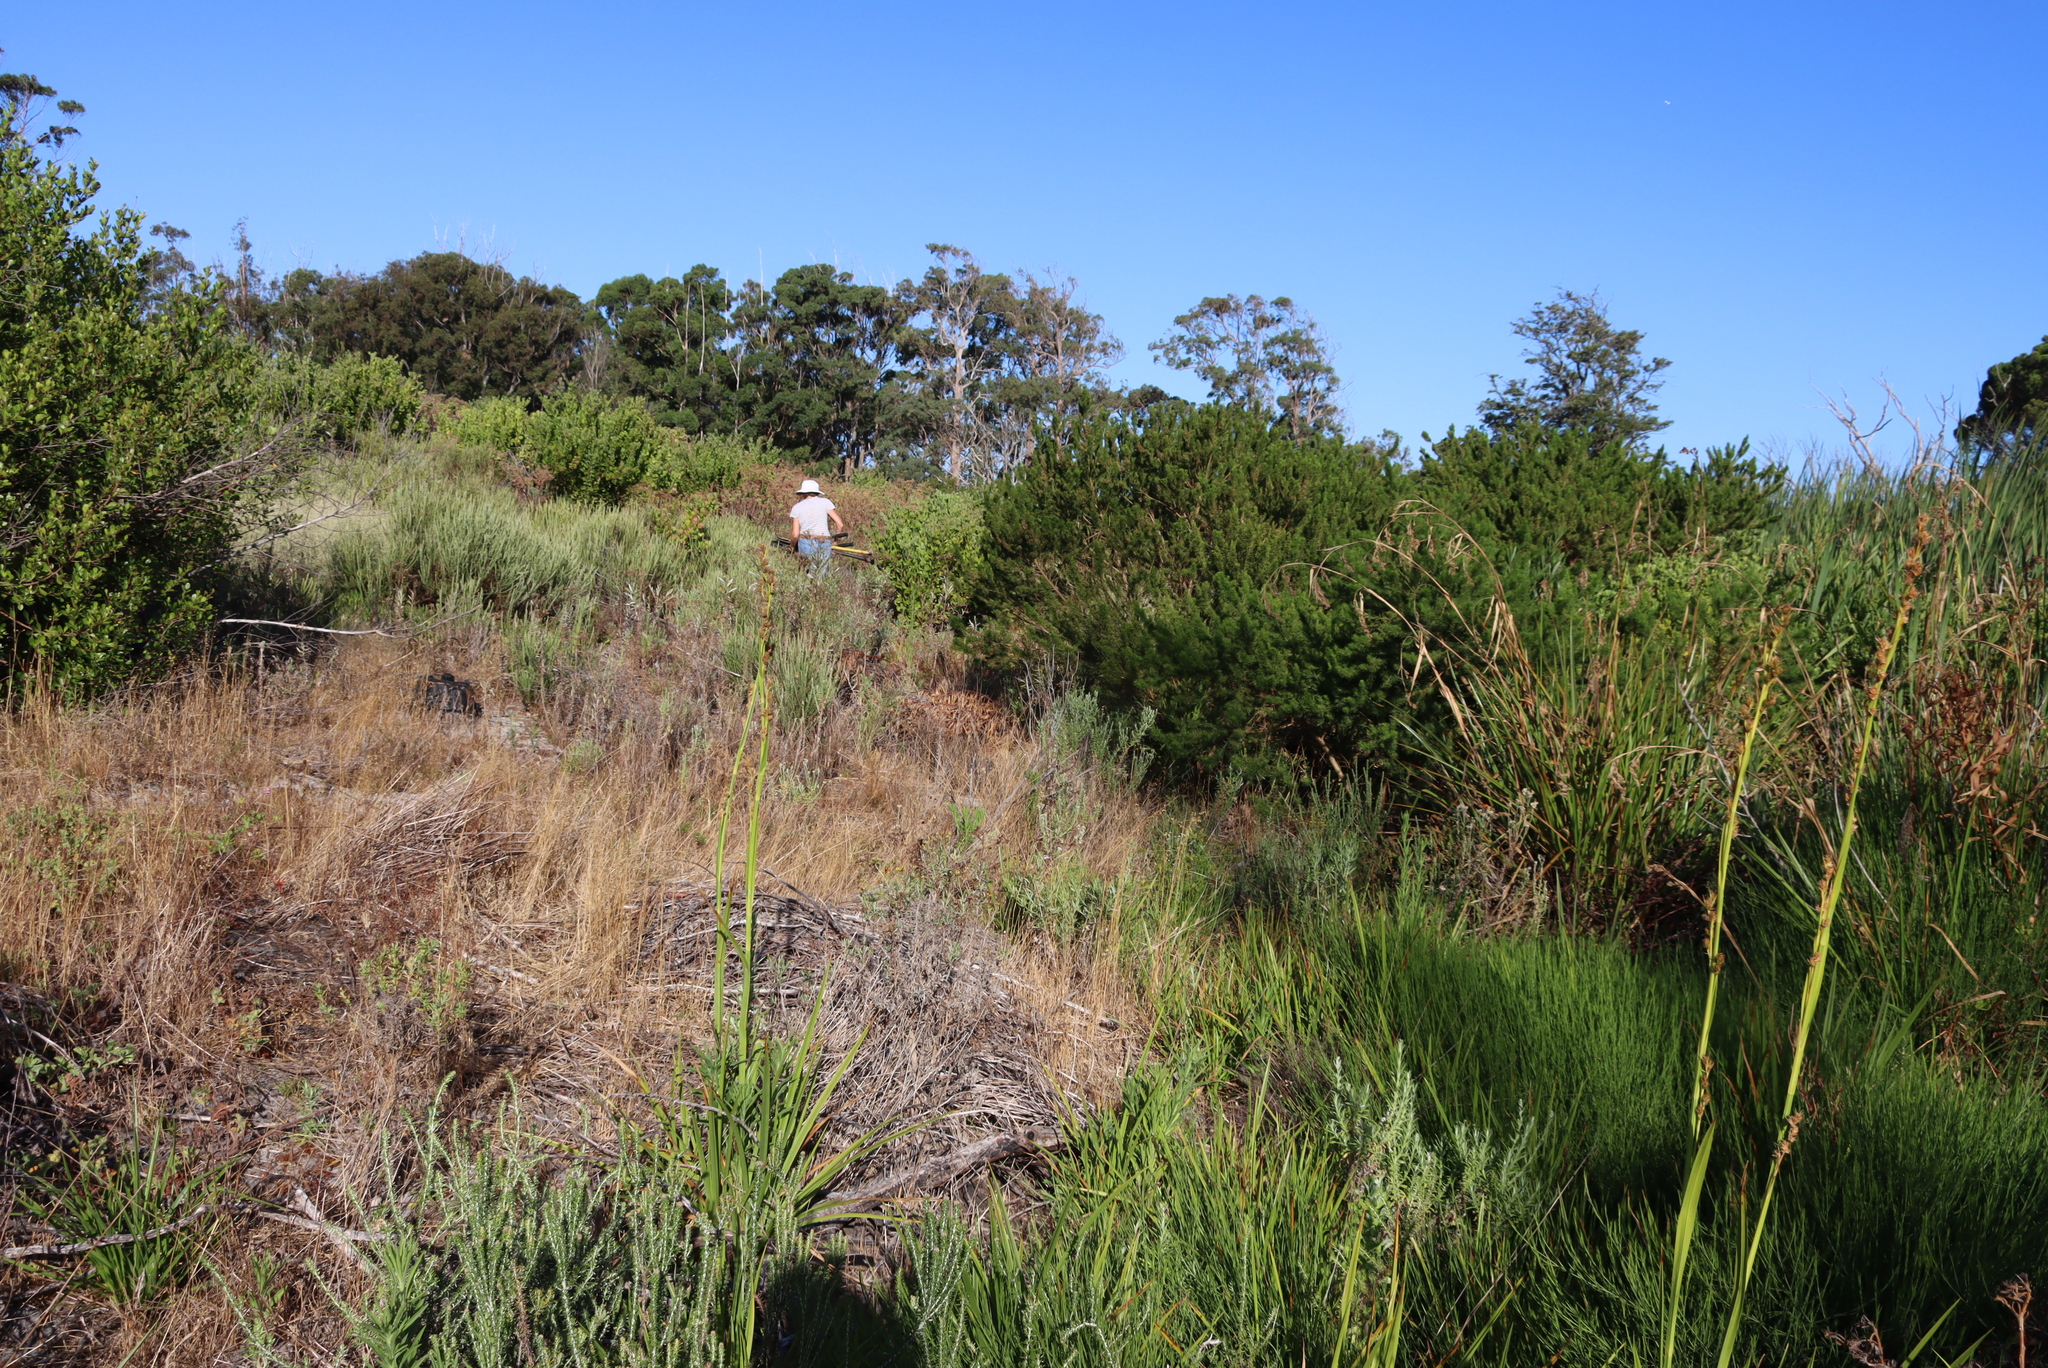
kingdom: Plantae
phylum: Tracheophyta
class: Magnoliopsida
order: Fabales
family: Fabaceae
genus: Psoralea
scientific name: Psoralea fascicularis
